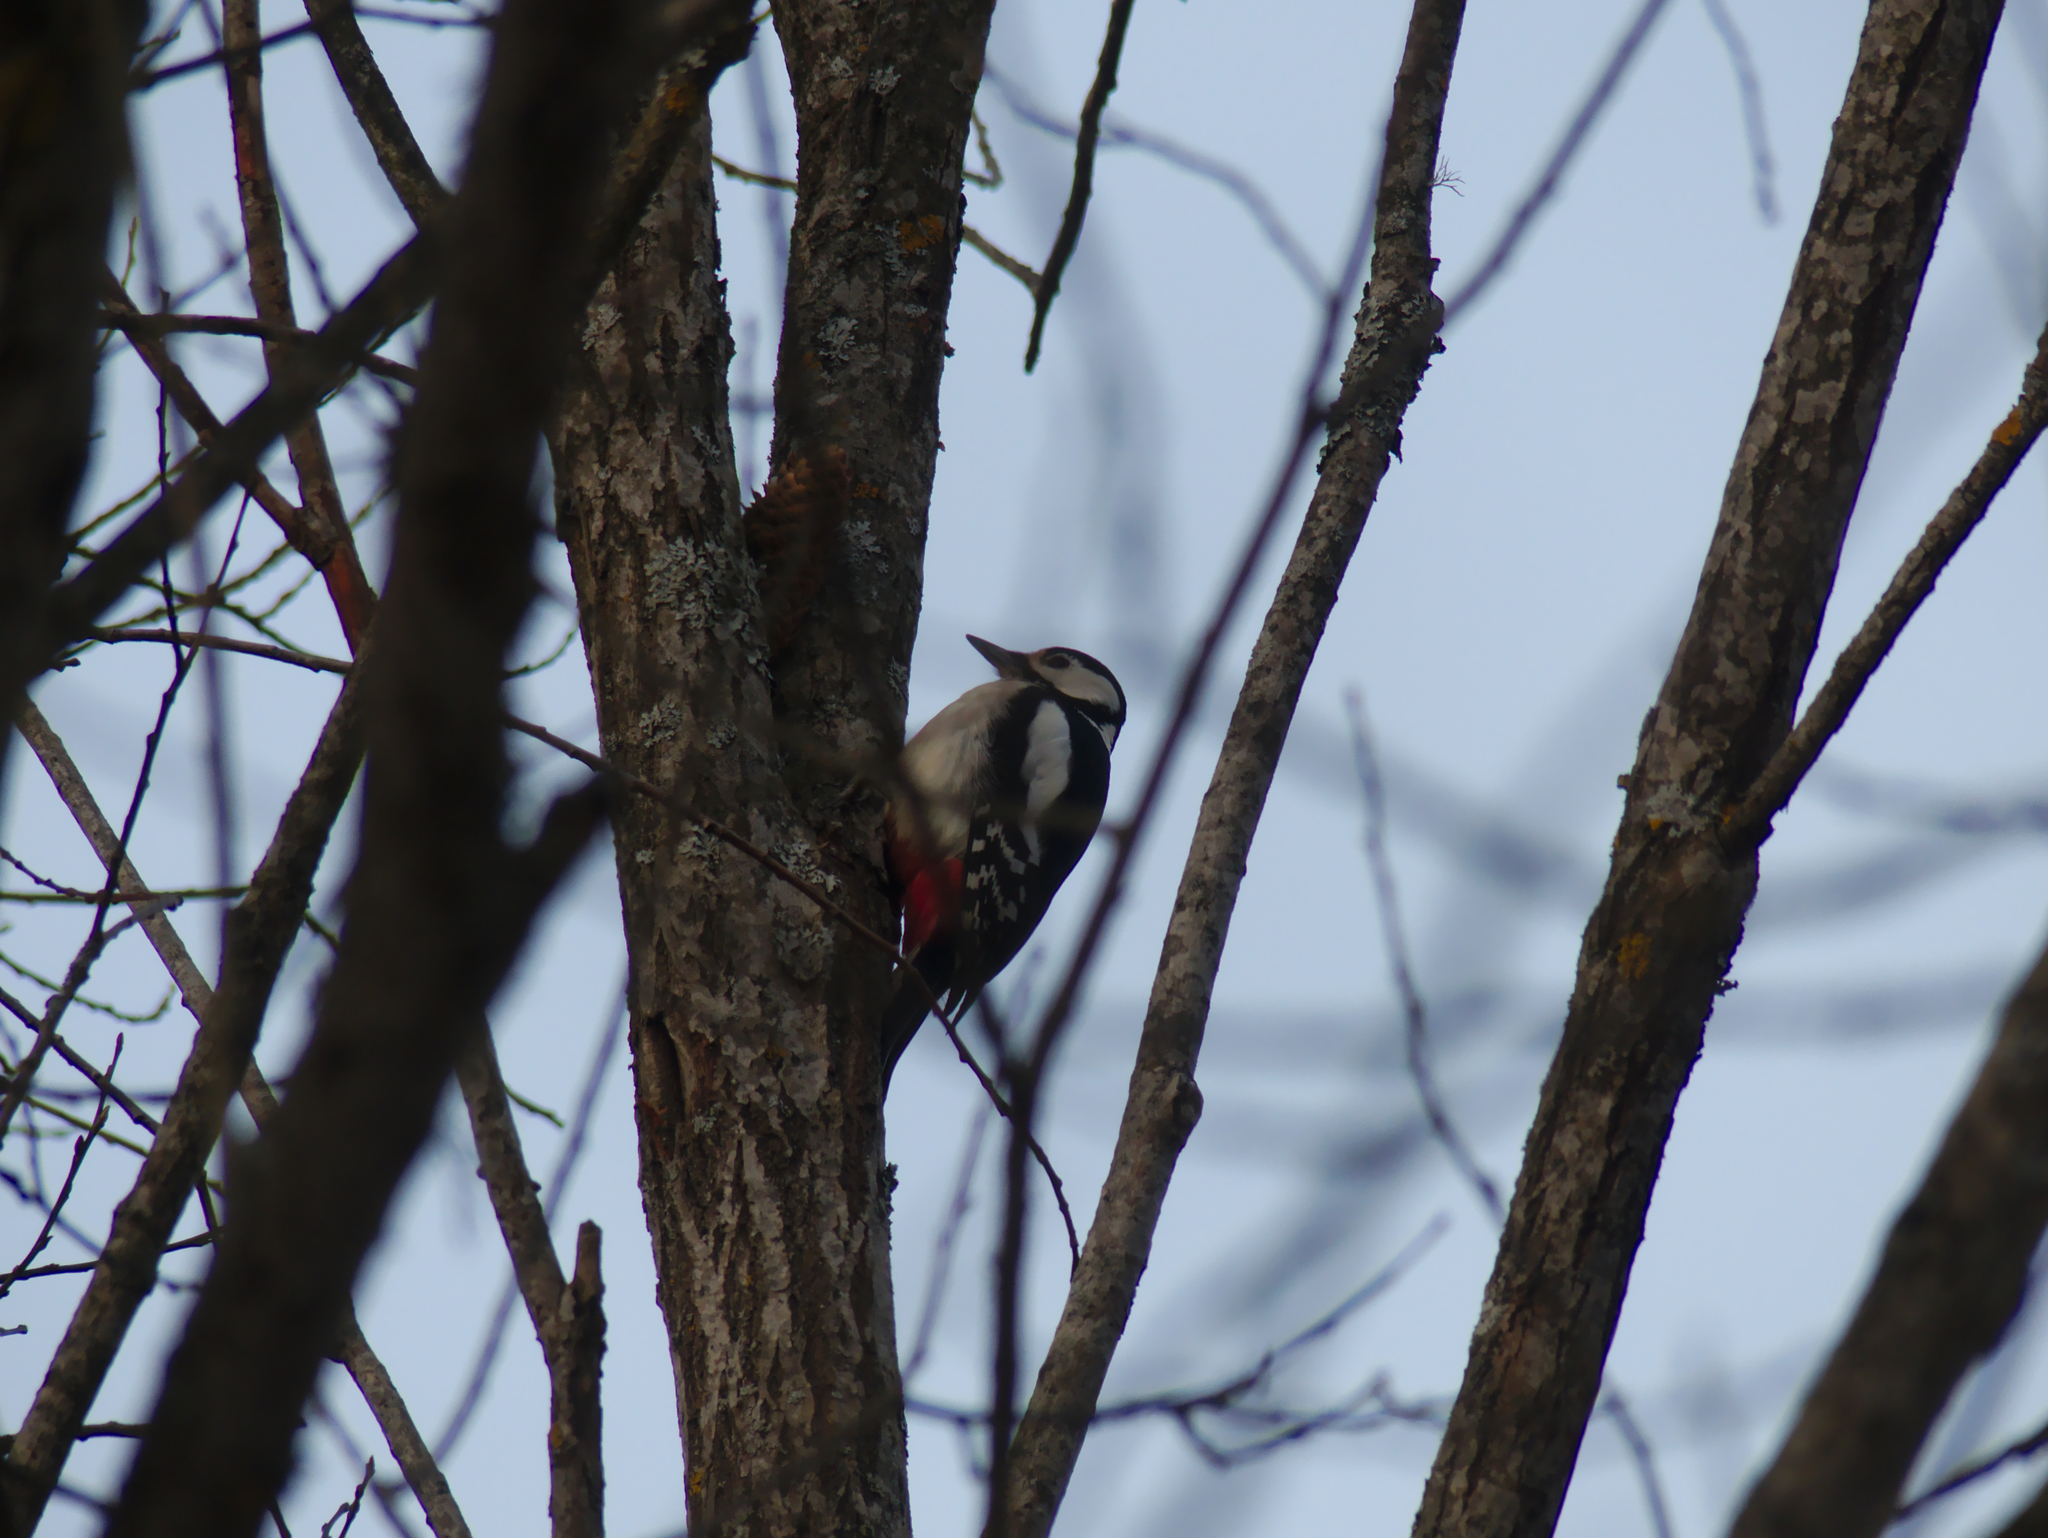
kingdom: Animalia
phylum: Chordata
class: Aves
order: Piciformes
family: Picidae
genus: Dendrocopos
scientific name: Dendrocopos major
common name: Great spotted woodpecker
